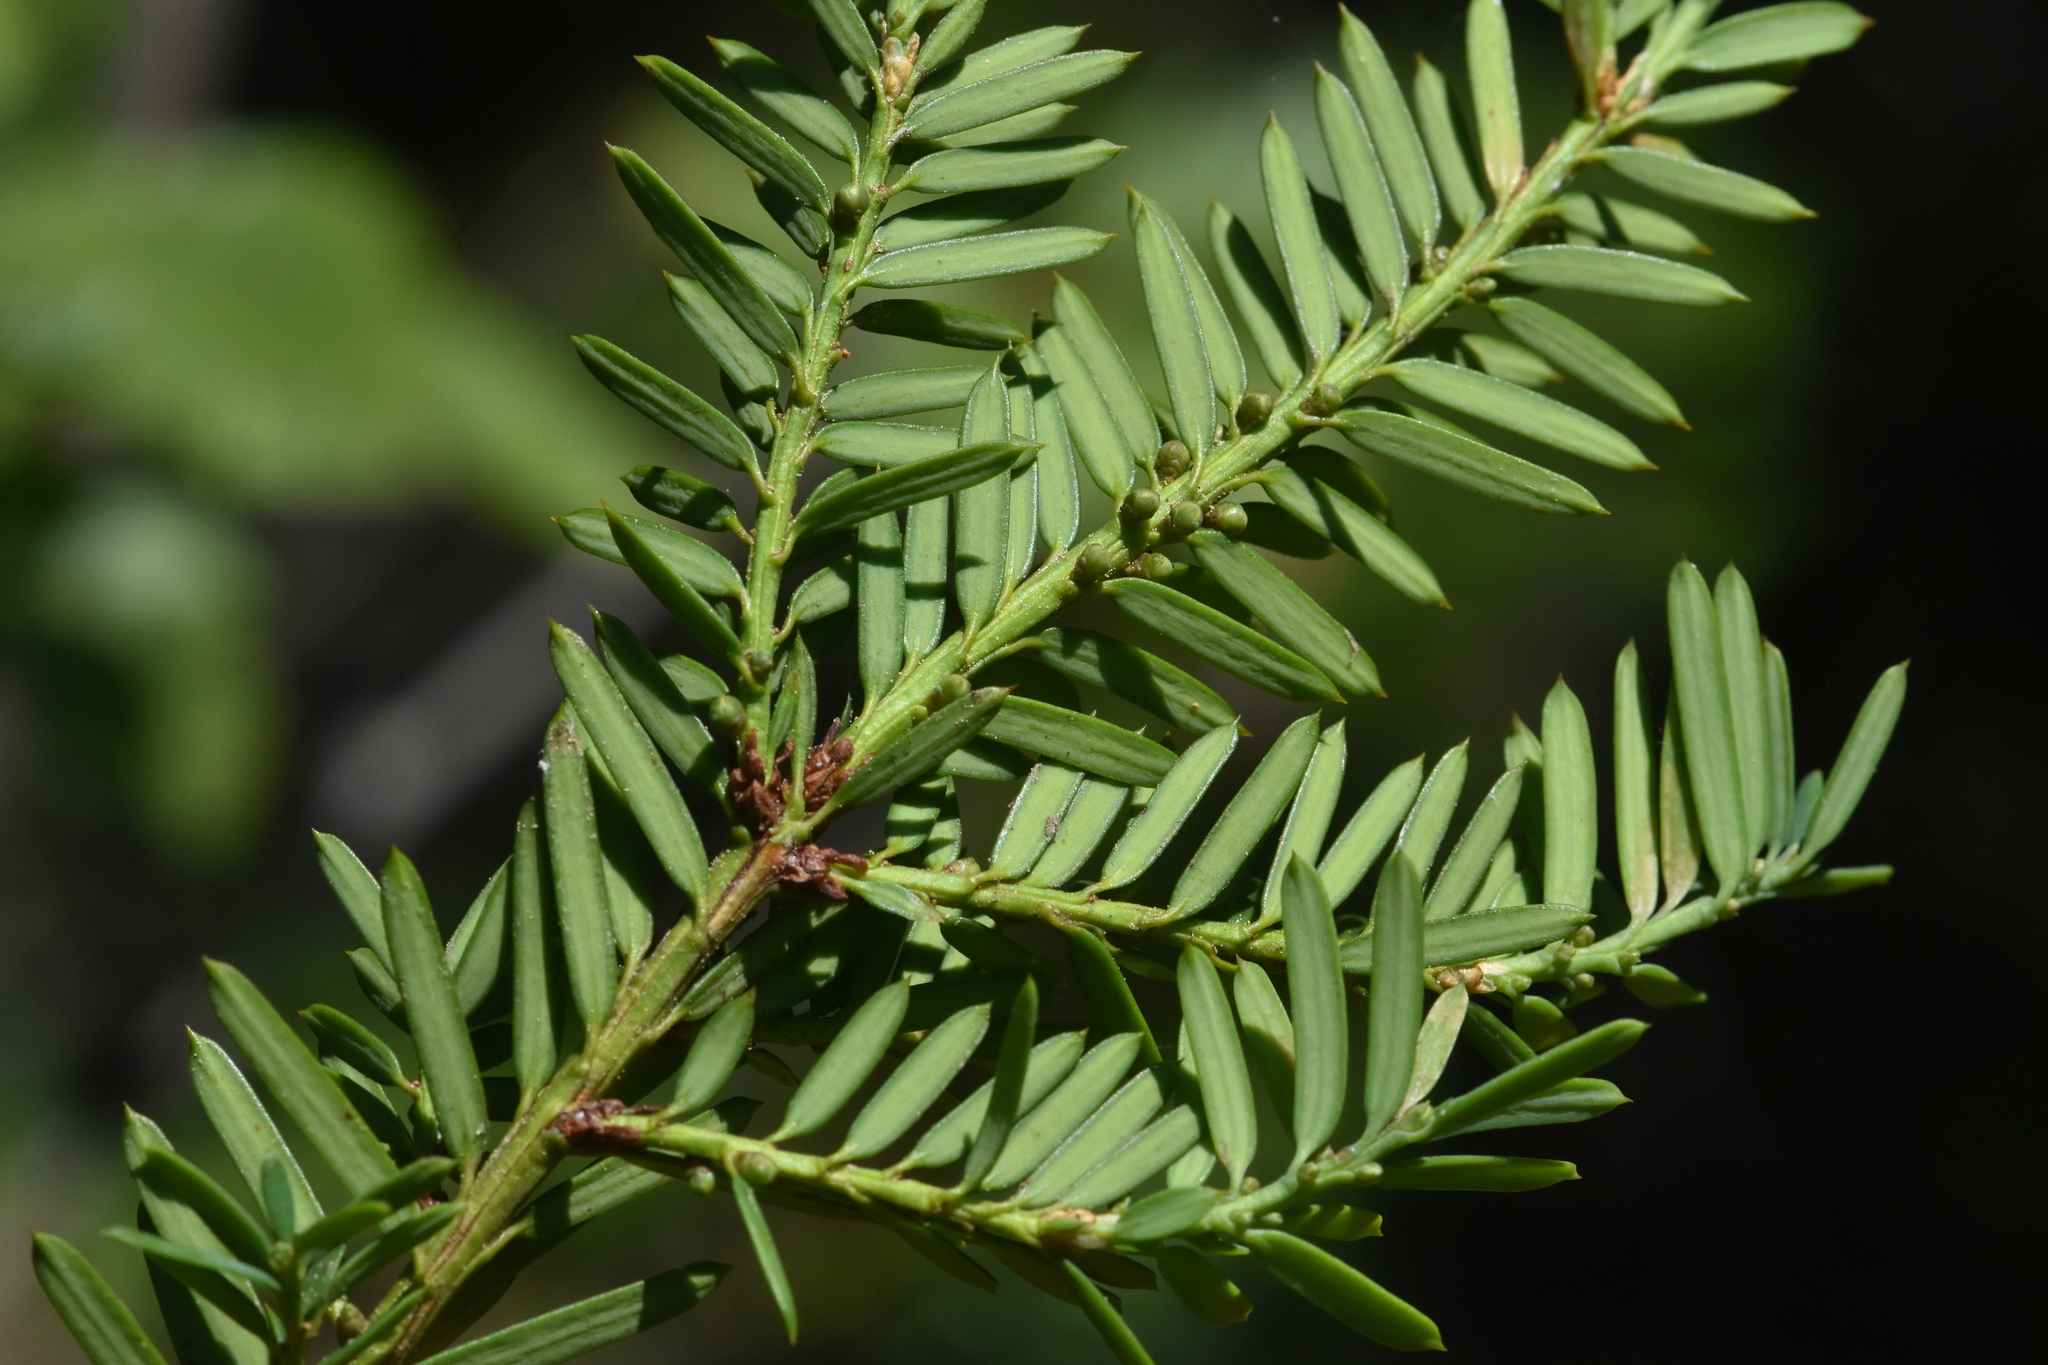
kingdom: Plantae
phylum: Tracheophyta
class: Pinopsida
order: Pinales
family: Taxaceae
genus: Taxus
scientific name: Taxus brevifolia
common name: Pacific yew
